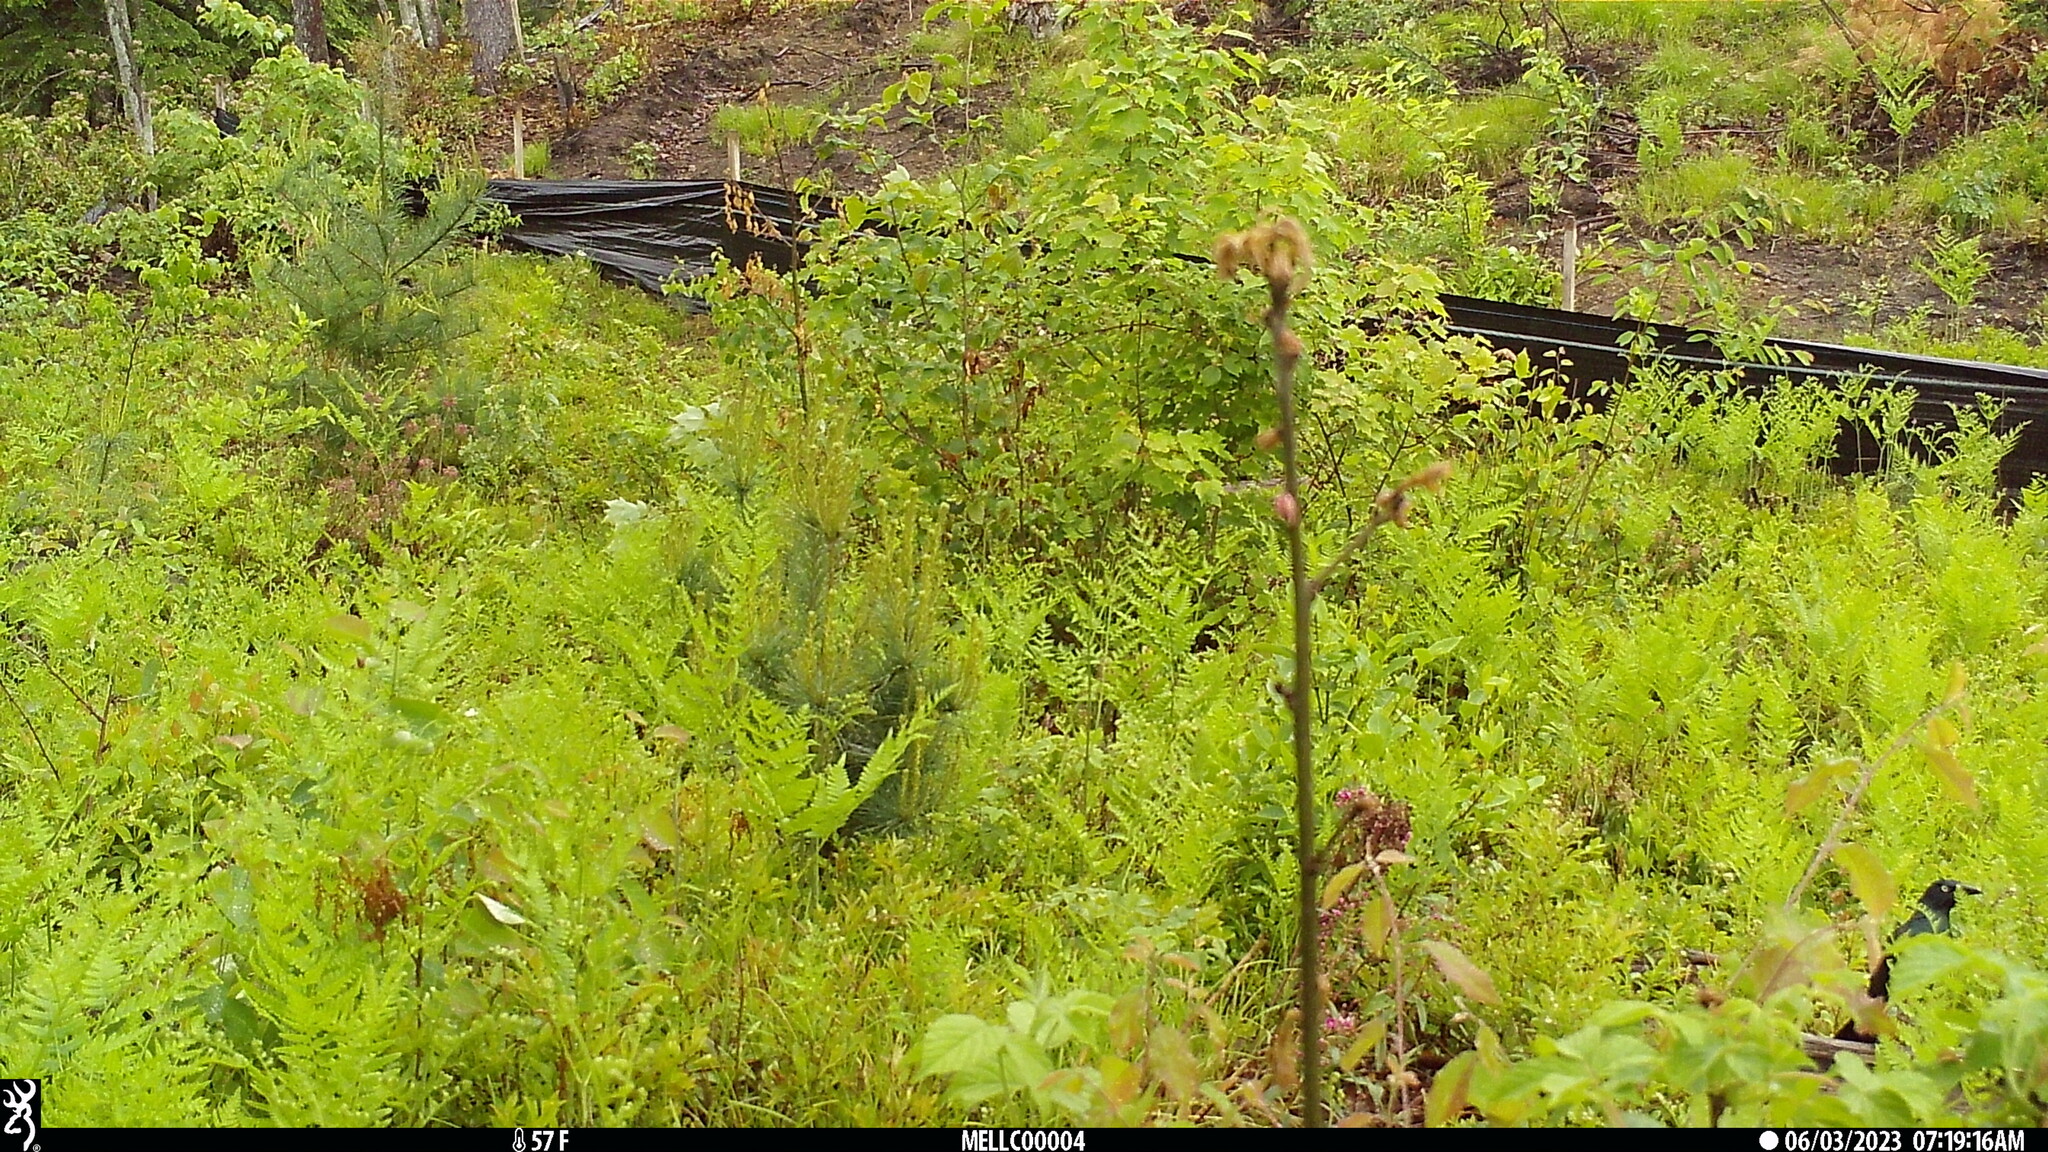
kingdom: Animalia
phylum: Chordata
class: Aves
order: Passeriformes
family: Icteridae
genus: Quiscalus
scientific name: Quiscalus quiscula
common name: Common grackle
